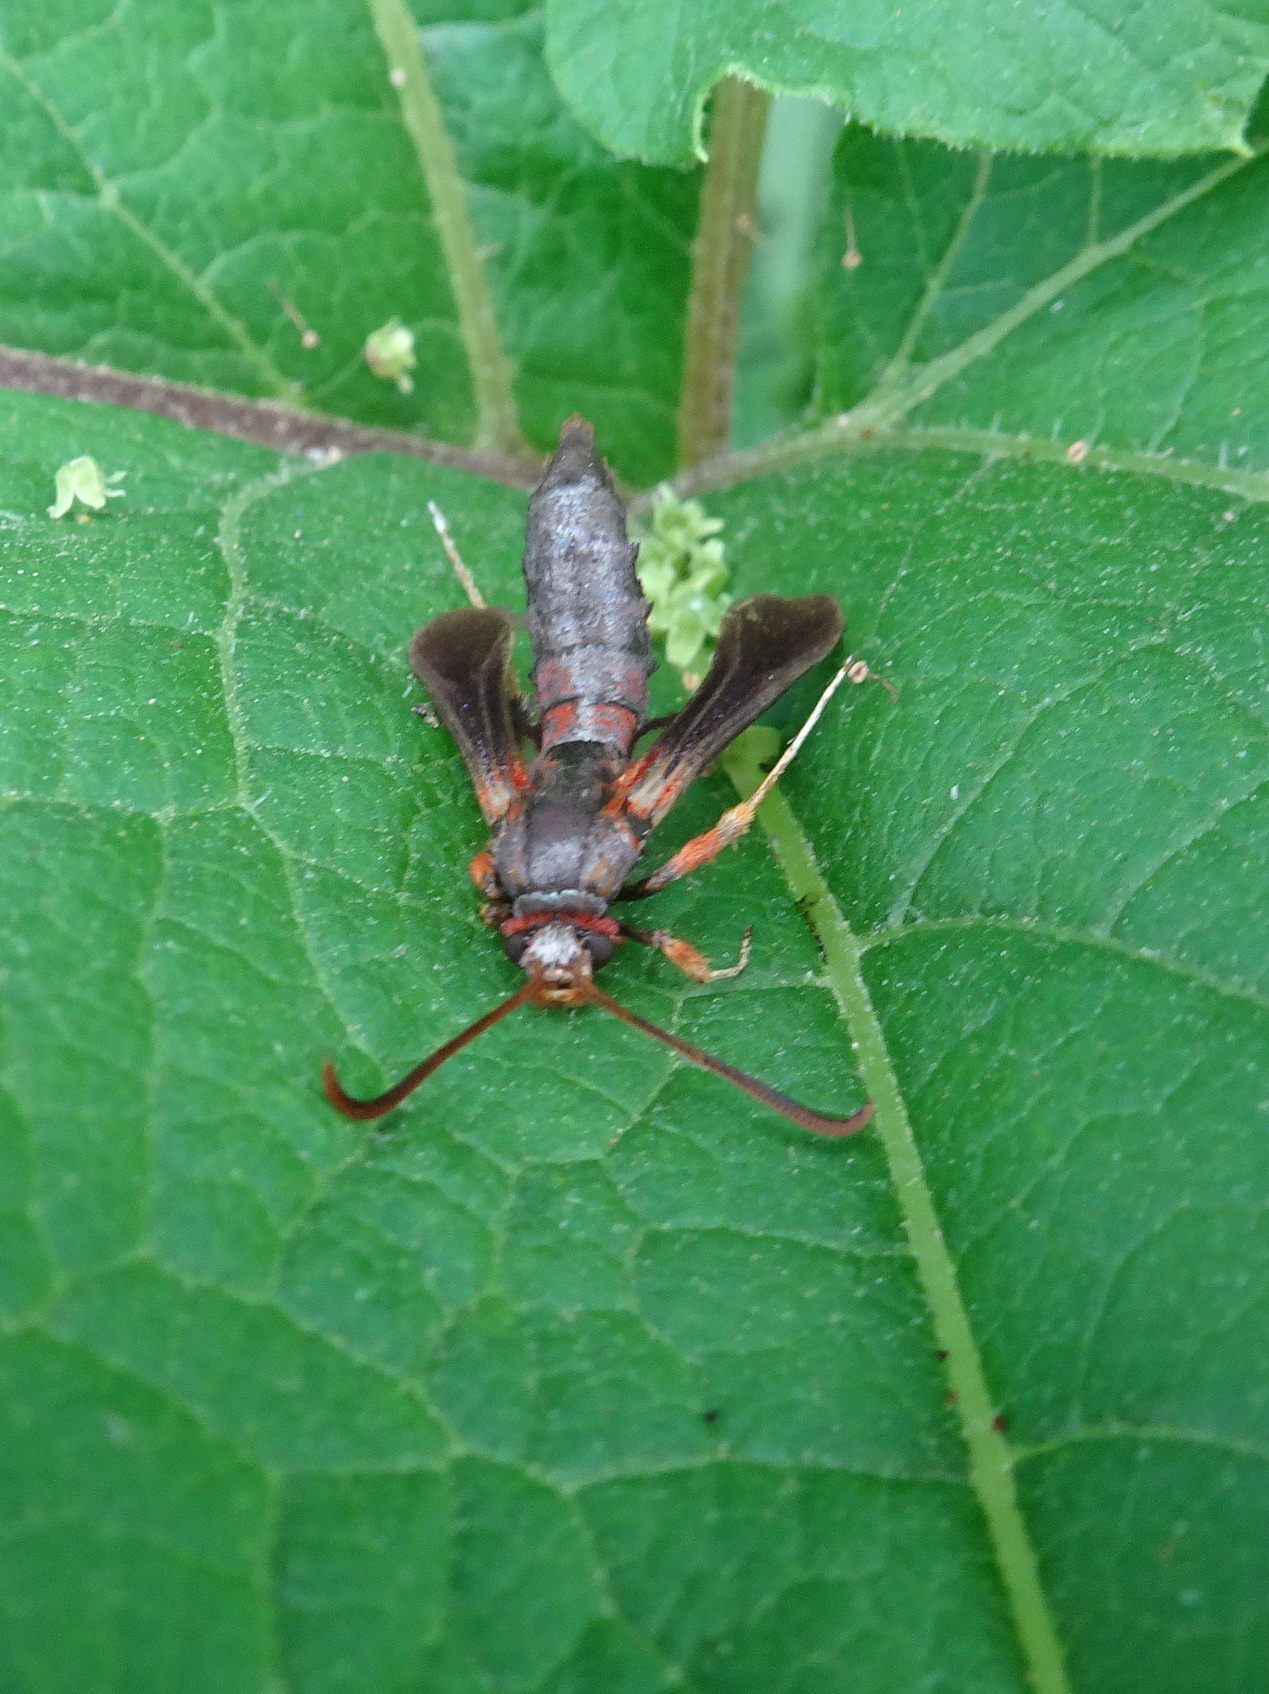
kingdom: Animalia
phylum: Arthropoda
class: Insecta
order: Lepidoptera
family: Sesiidae
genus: Podosesia
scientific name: Podosesia syringae
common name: Lilac borer moth
